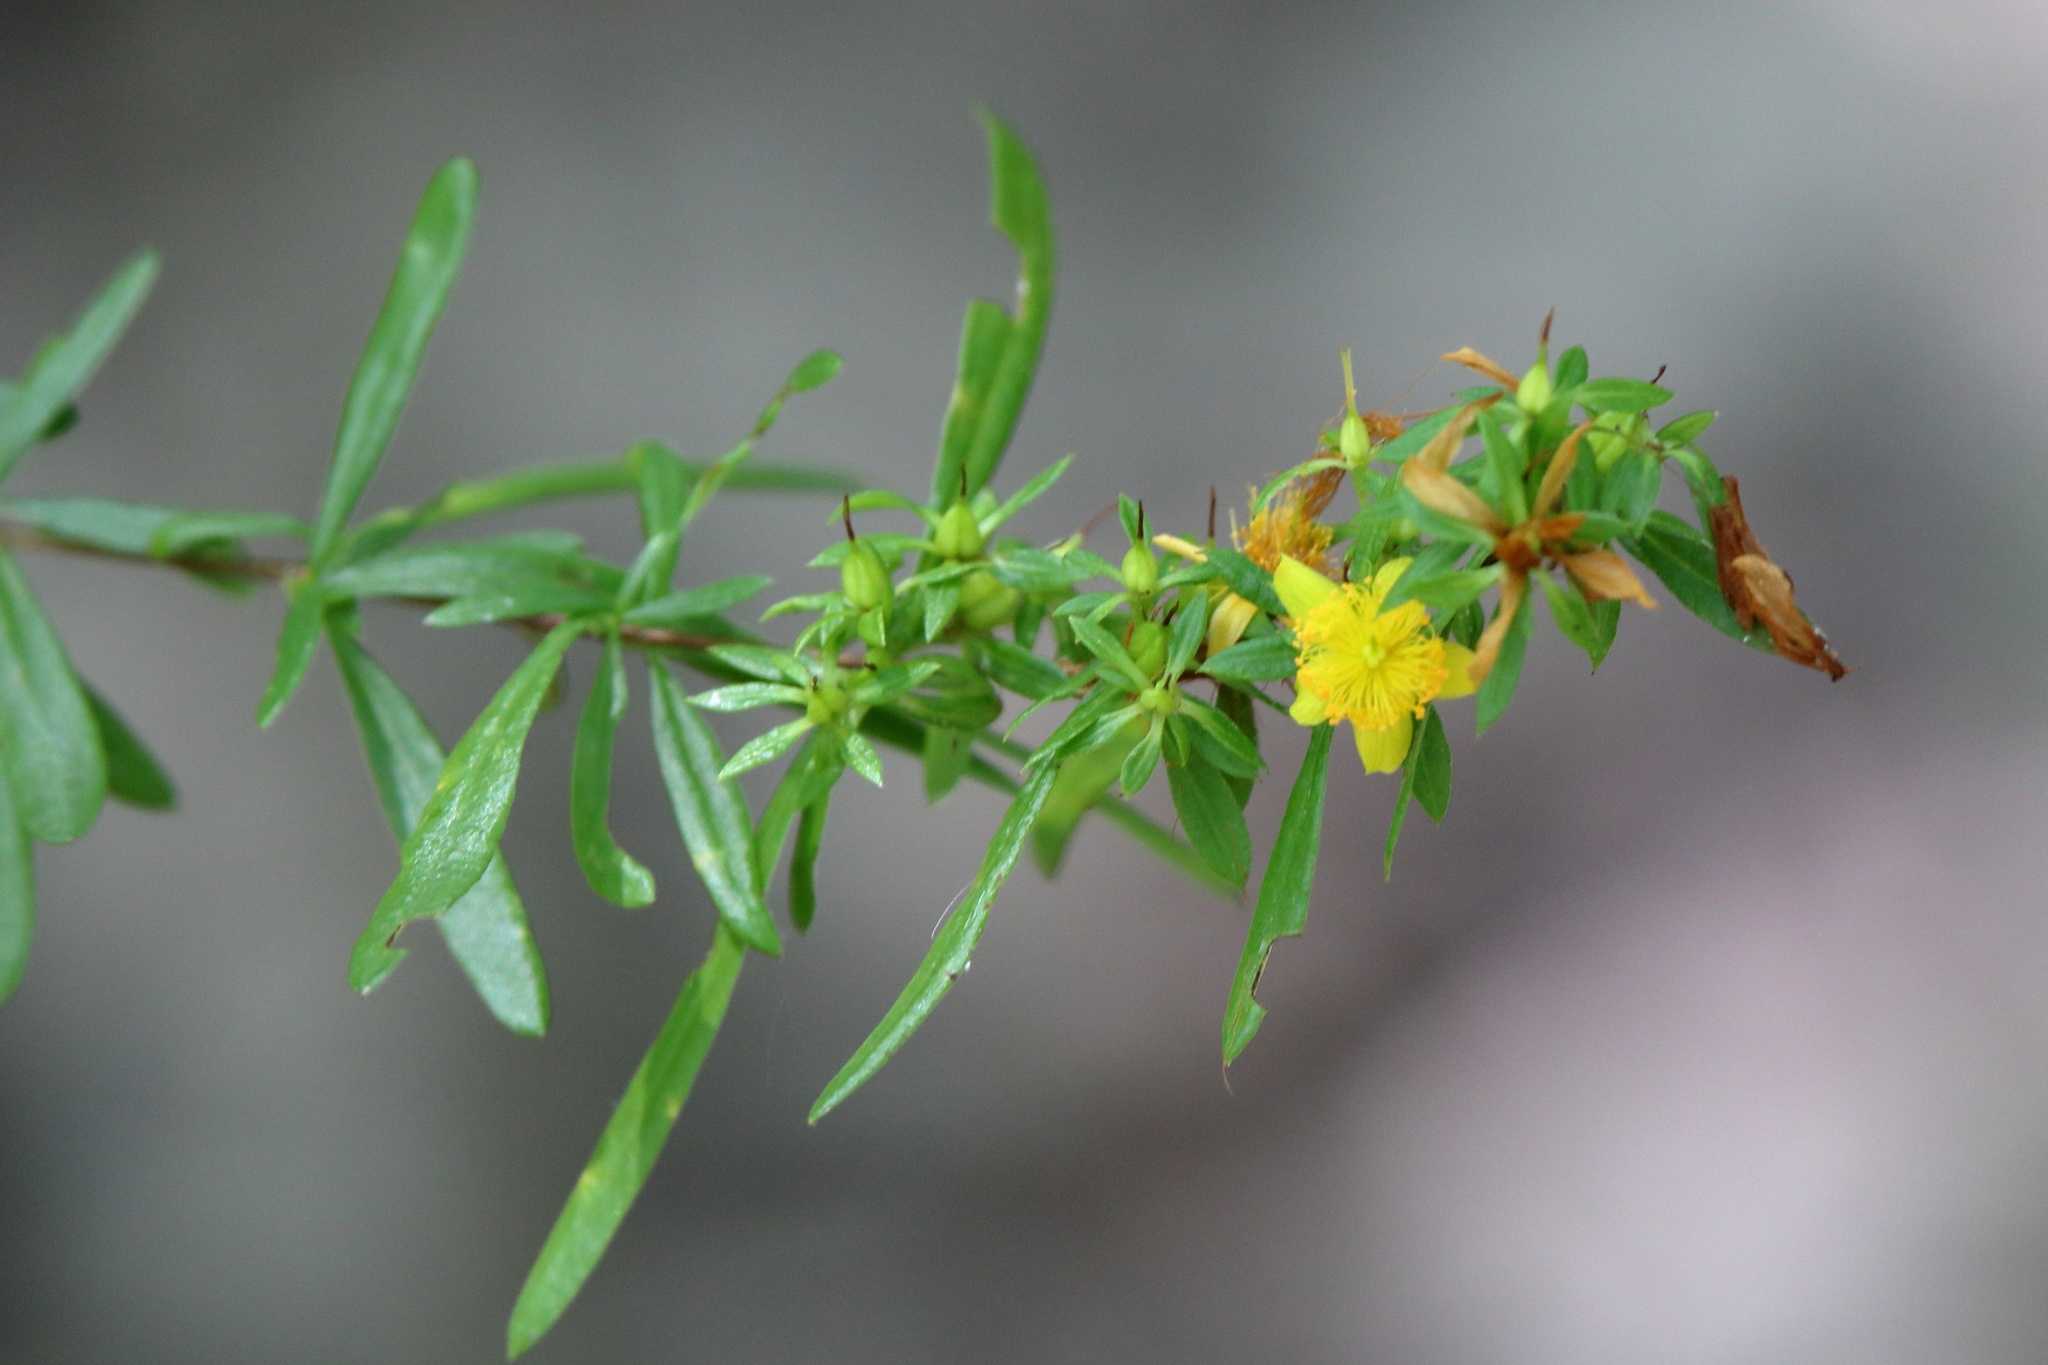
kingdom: Plantae
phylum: Tracheophyta
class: Magnoliopsida
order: Malpighiales
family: Hypericaceae
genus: Hypericum
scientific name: Hypericum galioides
